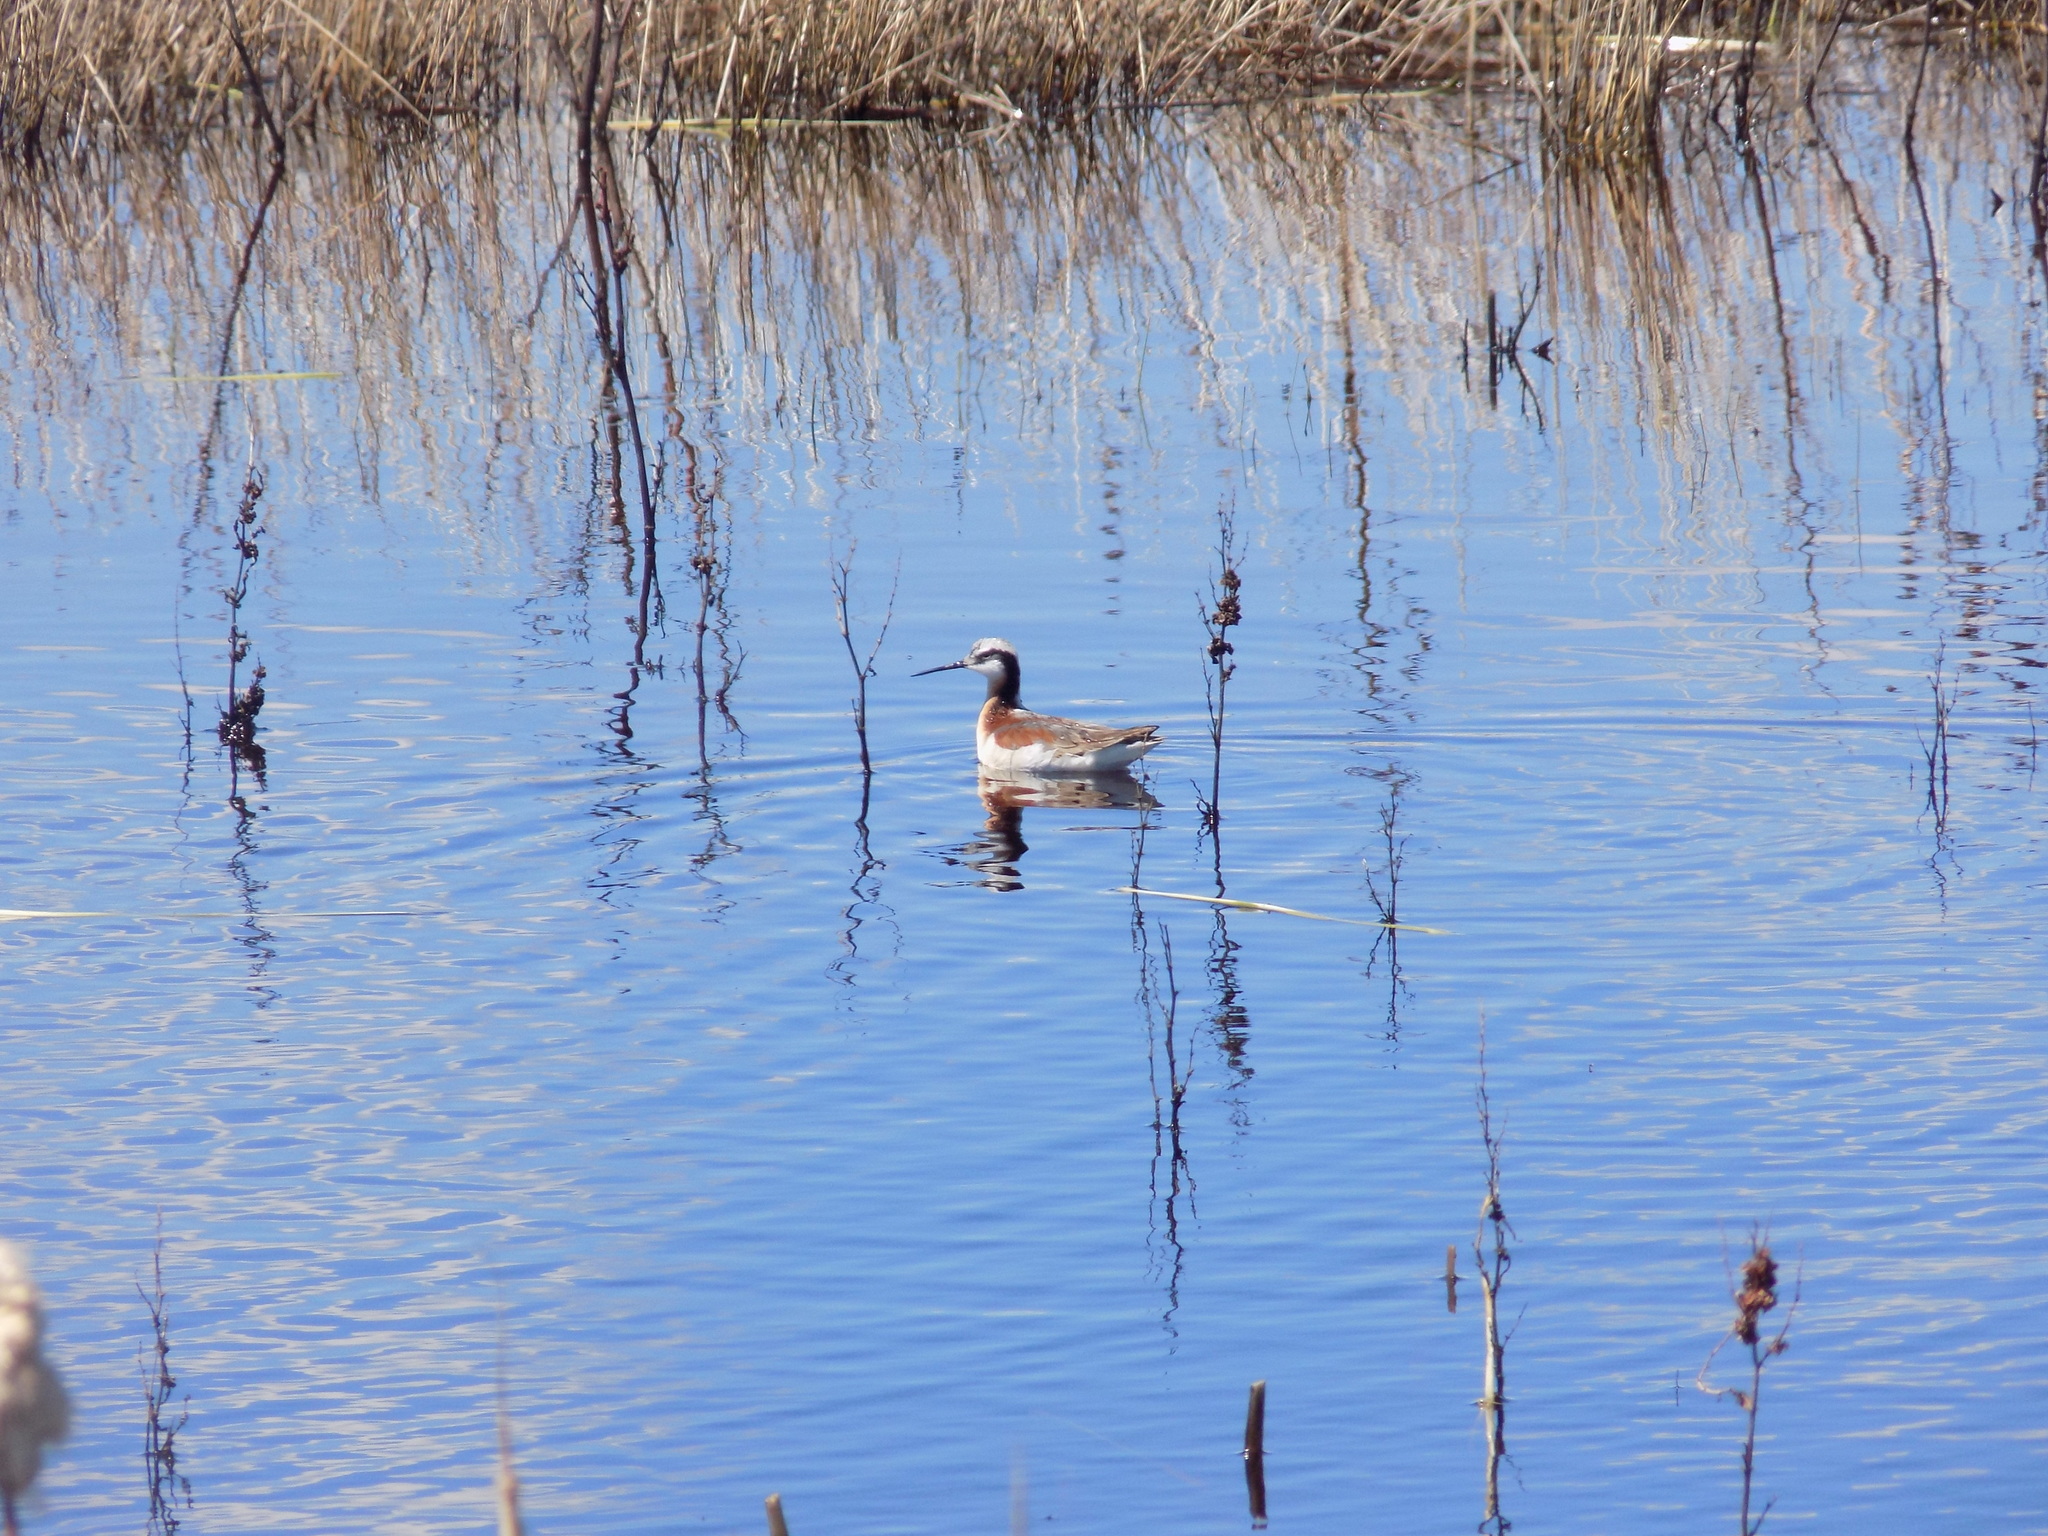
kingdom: Animalia
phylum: Chordata
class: Aves
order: Charadriiformes
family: Scolopacidae
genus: Phalaropus
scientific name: Phalaropus tricolor
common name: Wilson's phalarope
